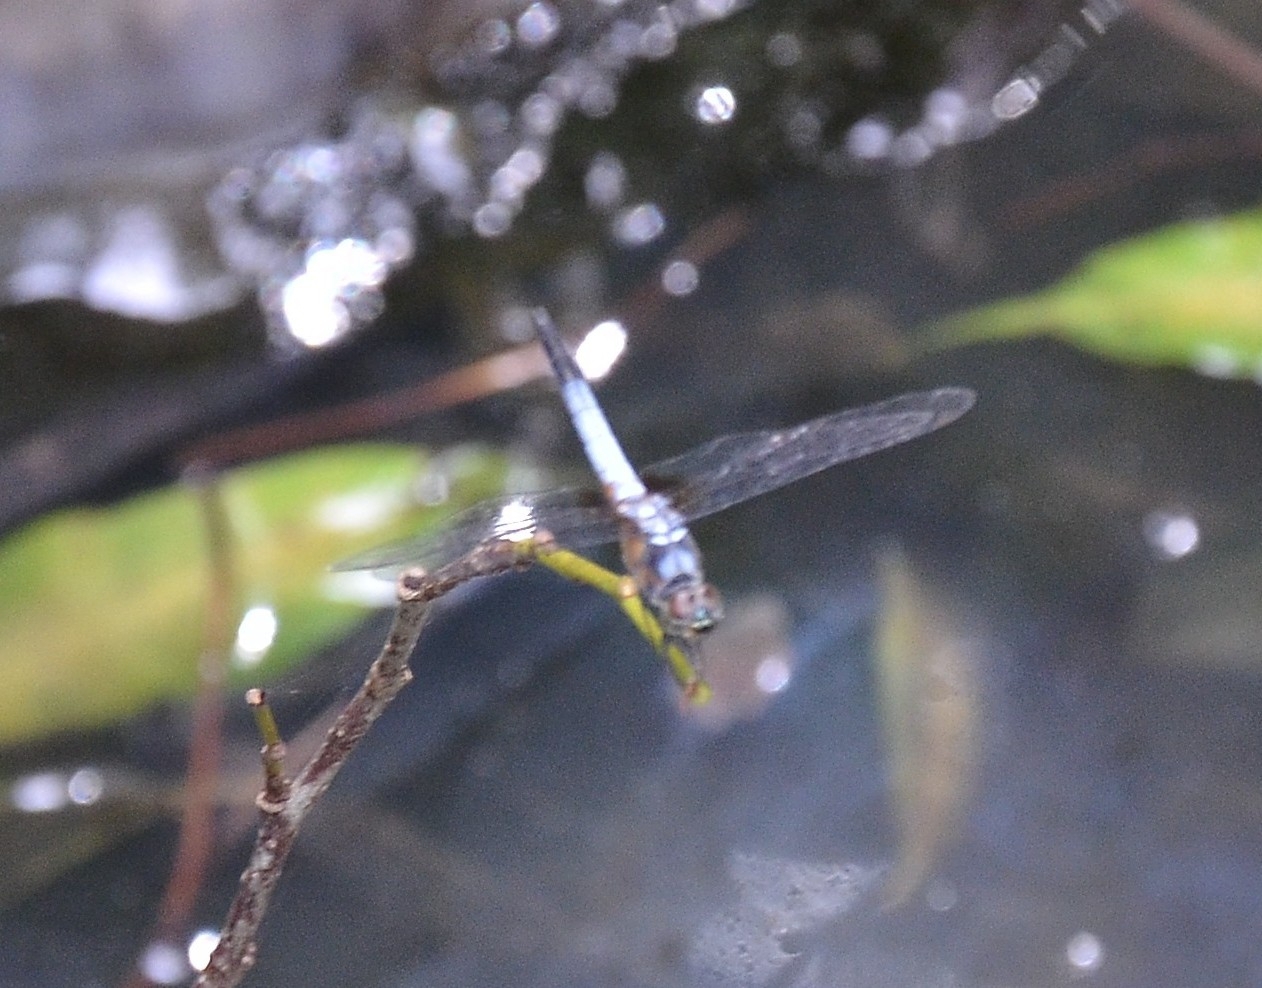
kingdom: Animalia
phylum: Arthropoda
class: Insecta
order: Odonata
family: Libellulidae
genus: Brachydiplax
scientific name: Brachydiplax chalybea
